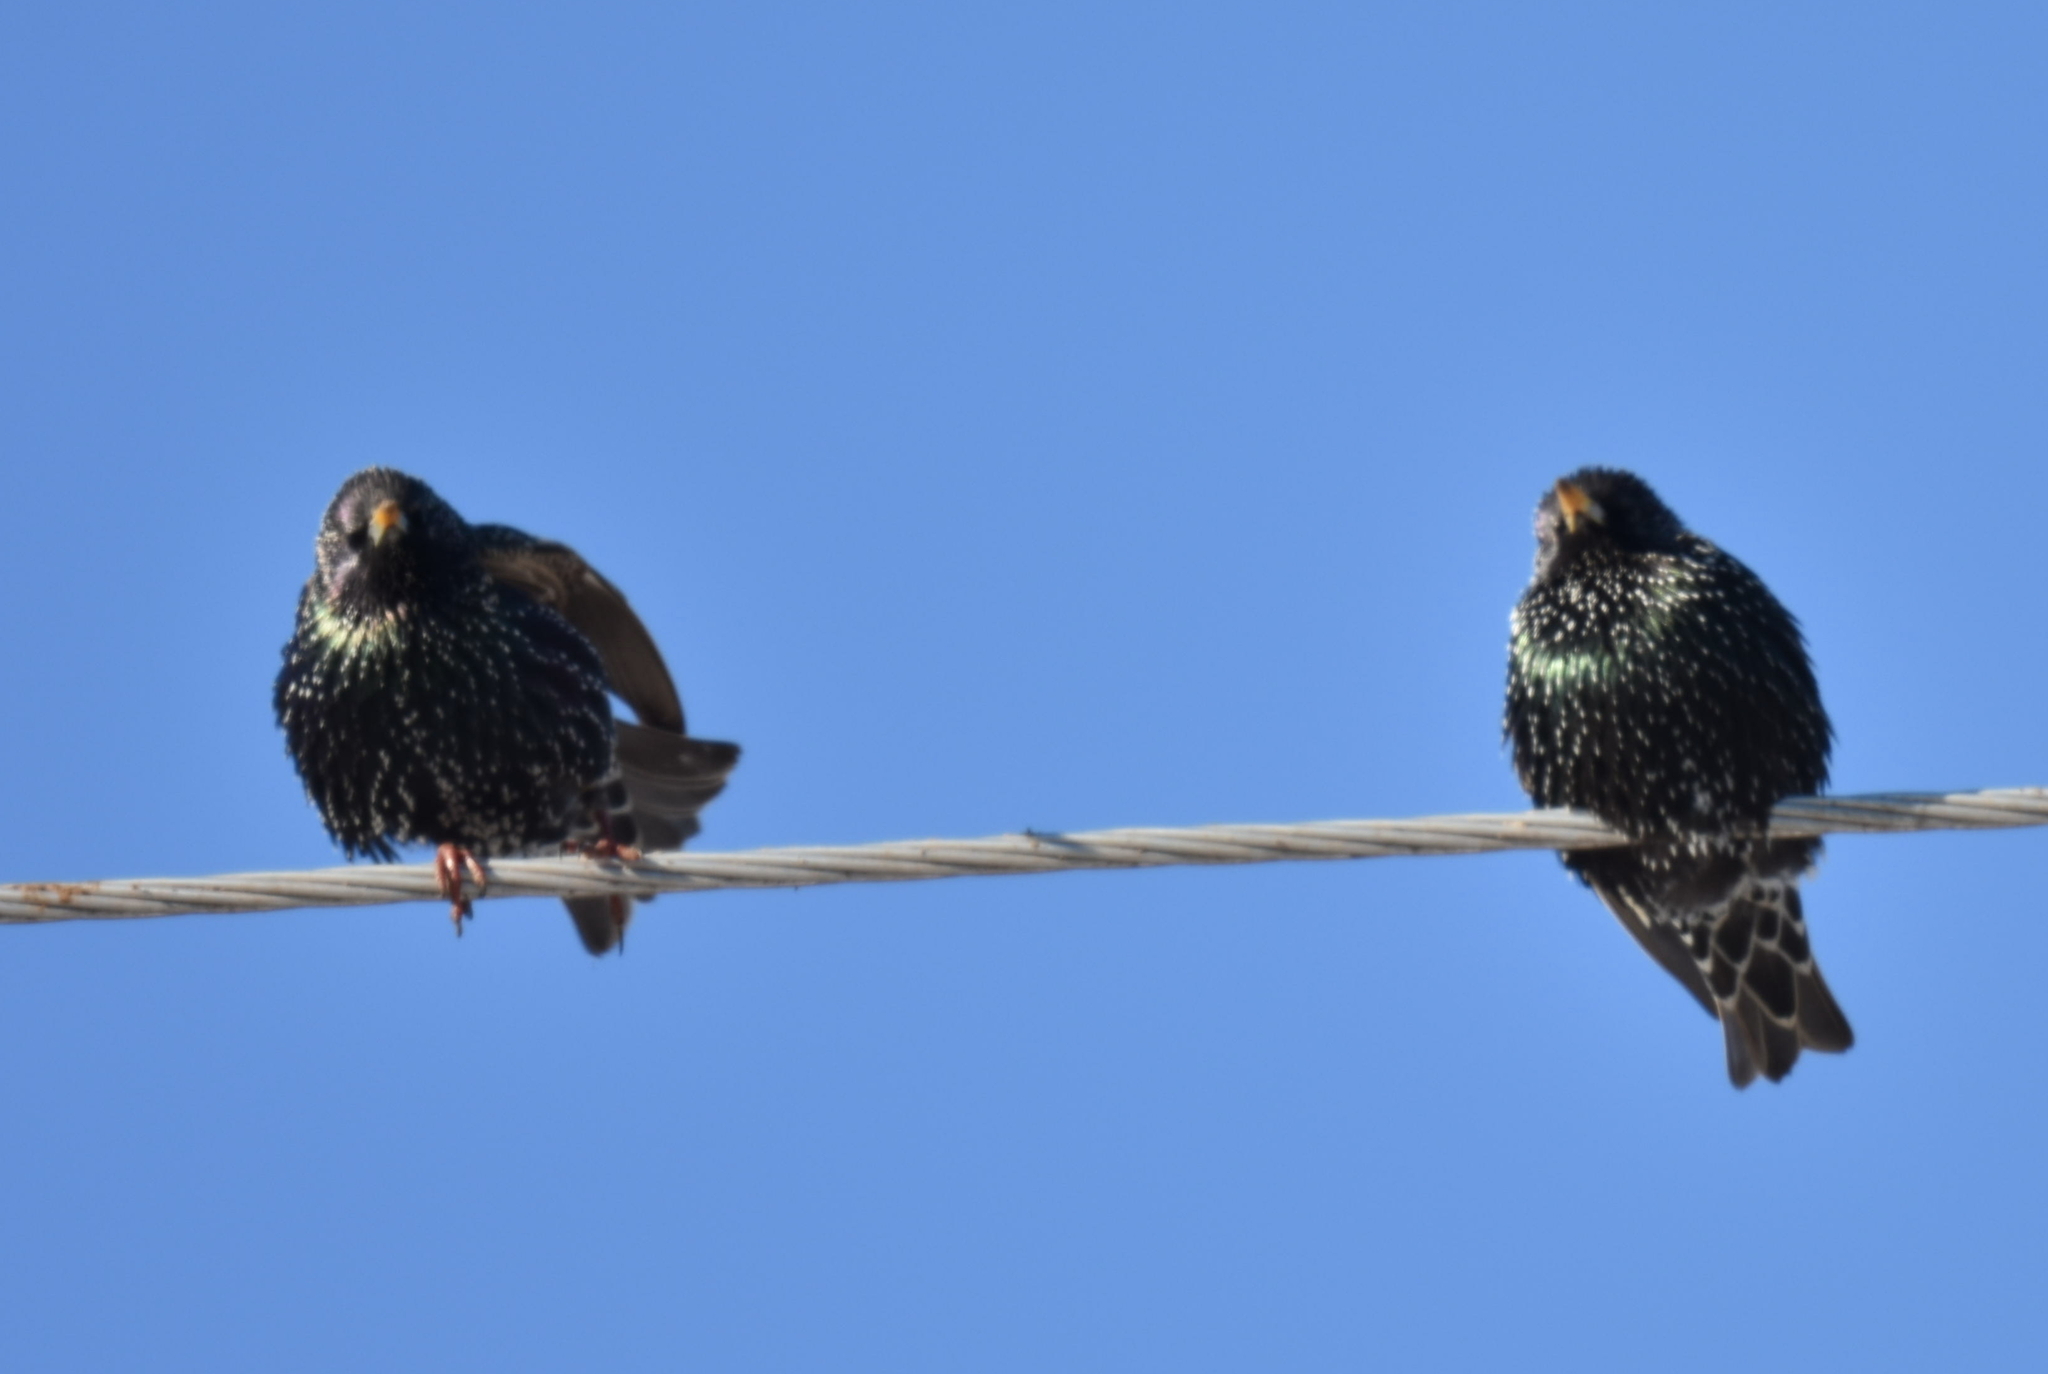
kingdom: Animalia
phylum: Chordata
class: Aves
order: Passeriformes
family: Sturnidae
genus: Sturnus
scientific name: Sturnus vulgaris
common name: Common starling
